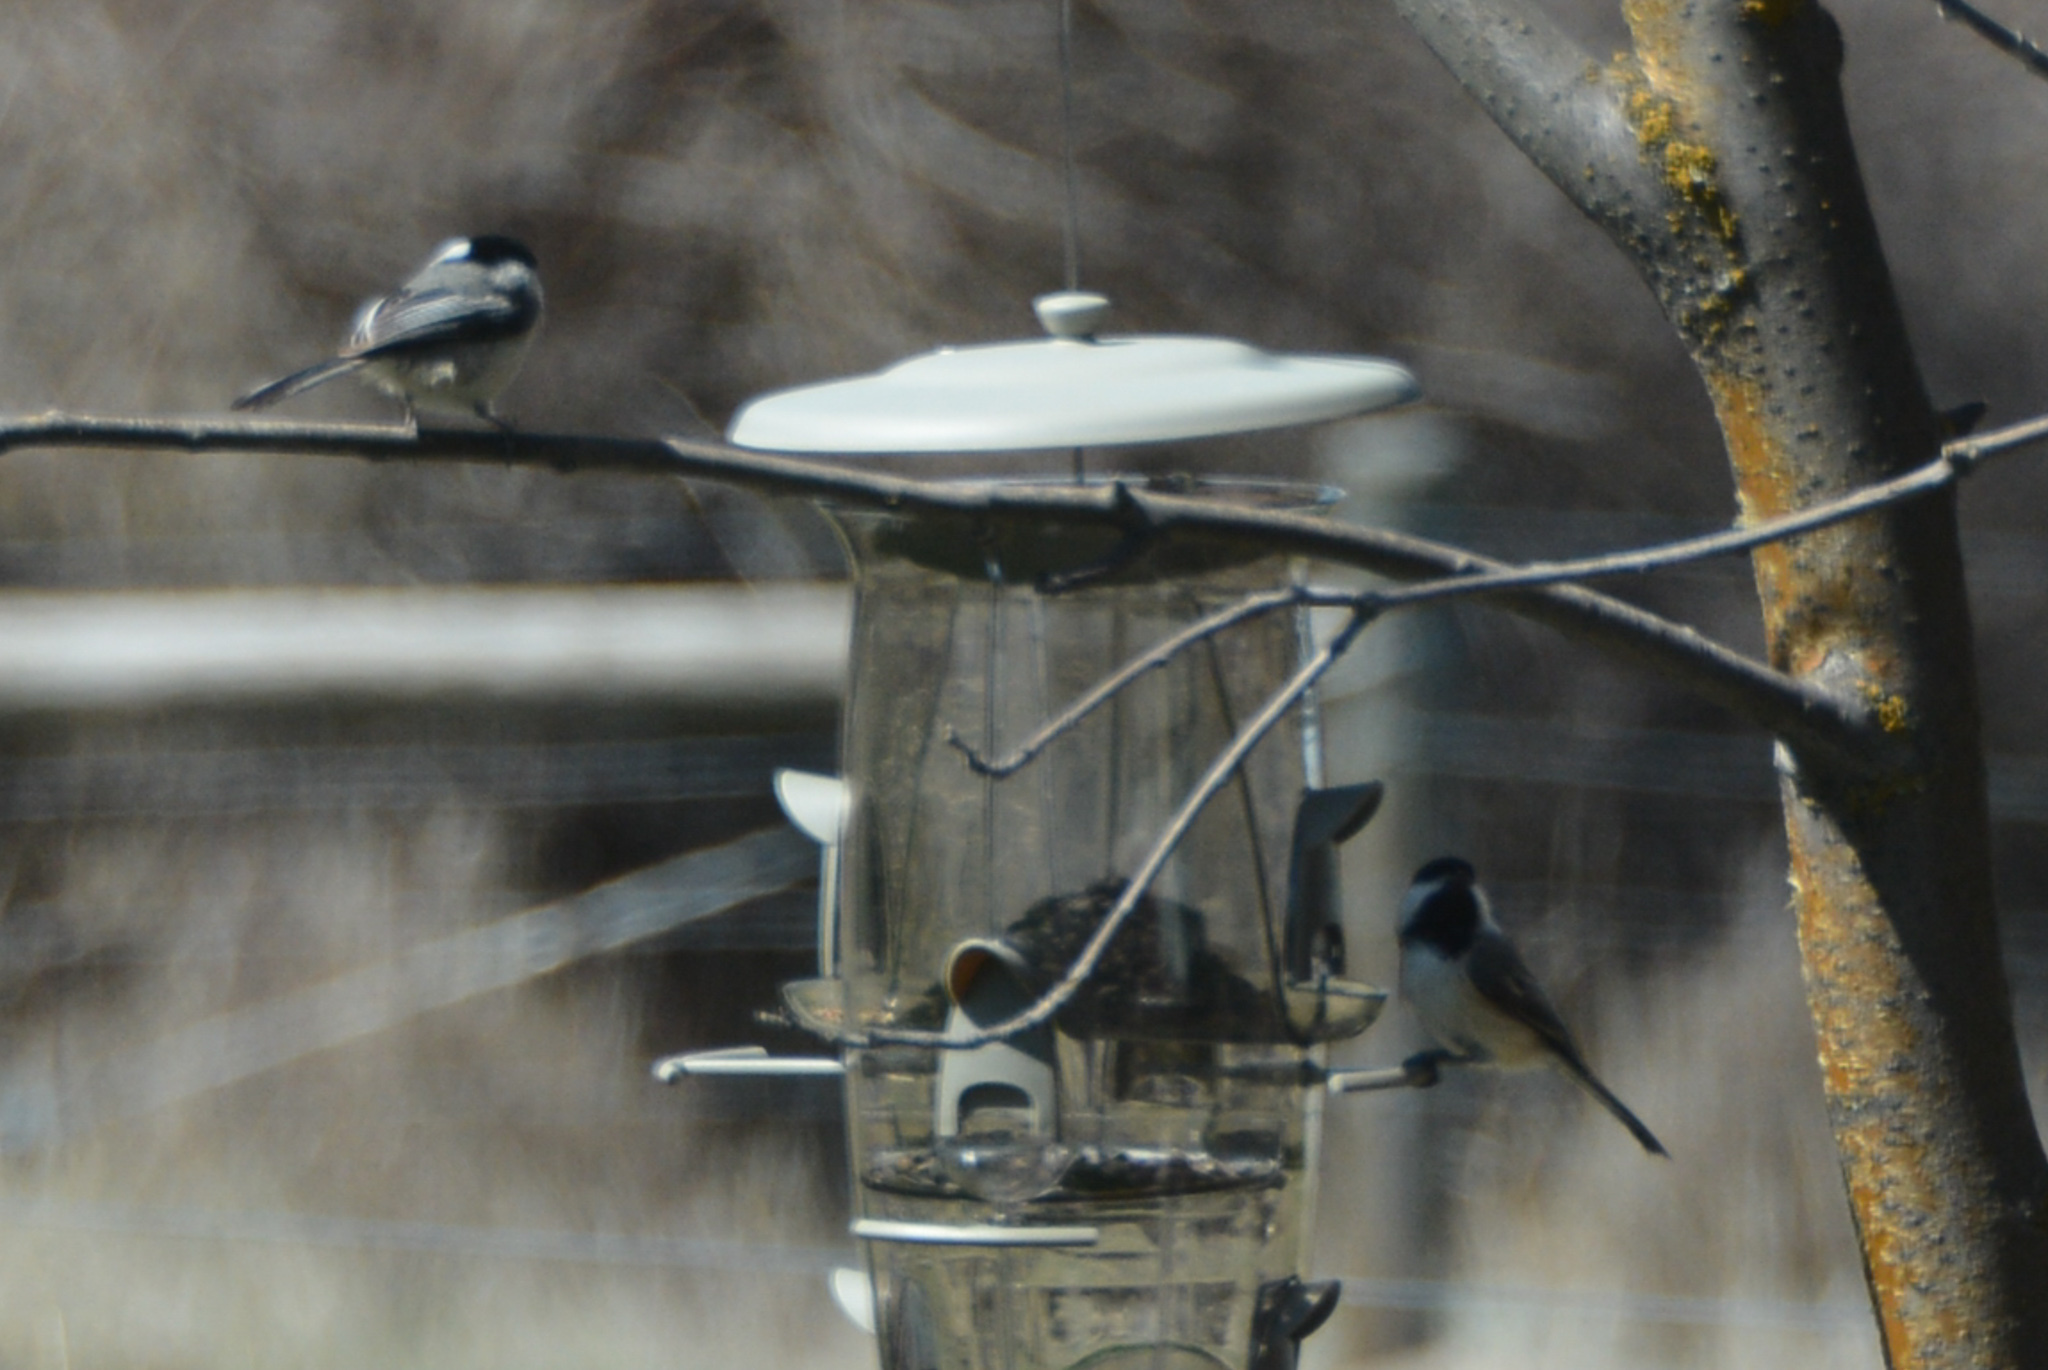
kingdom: Animalia
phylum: Chordata
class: Aves
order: Passeriformes
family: Paridae
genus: Poecile
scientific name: Poecile atricapillus
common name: Black-capped chickadee
